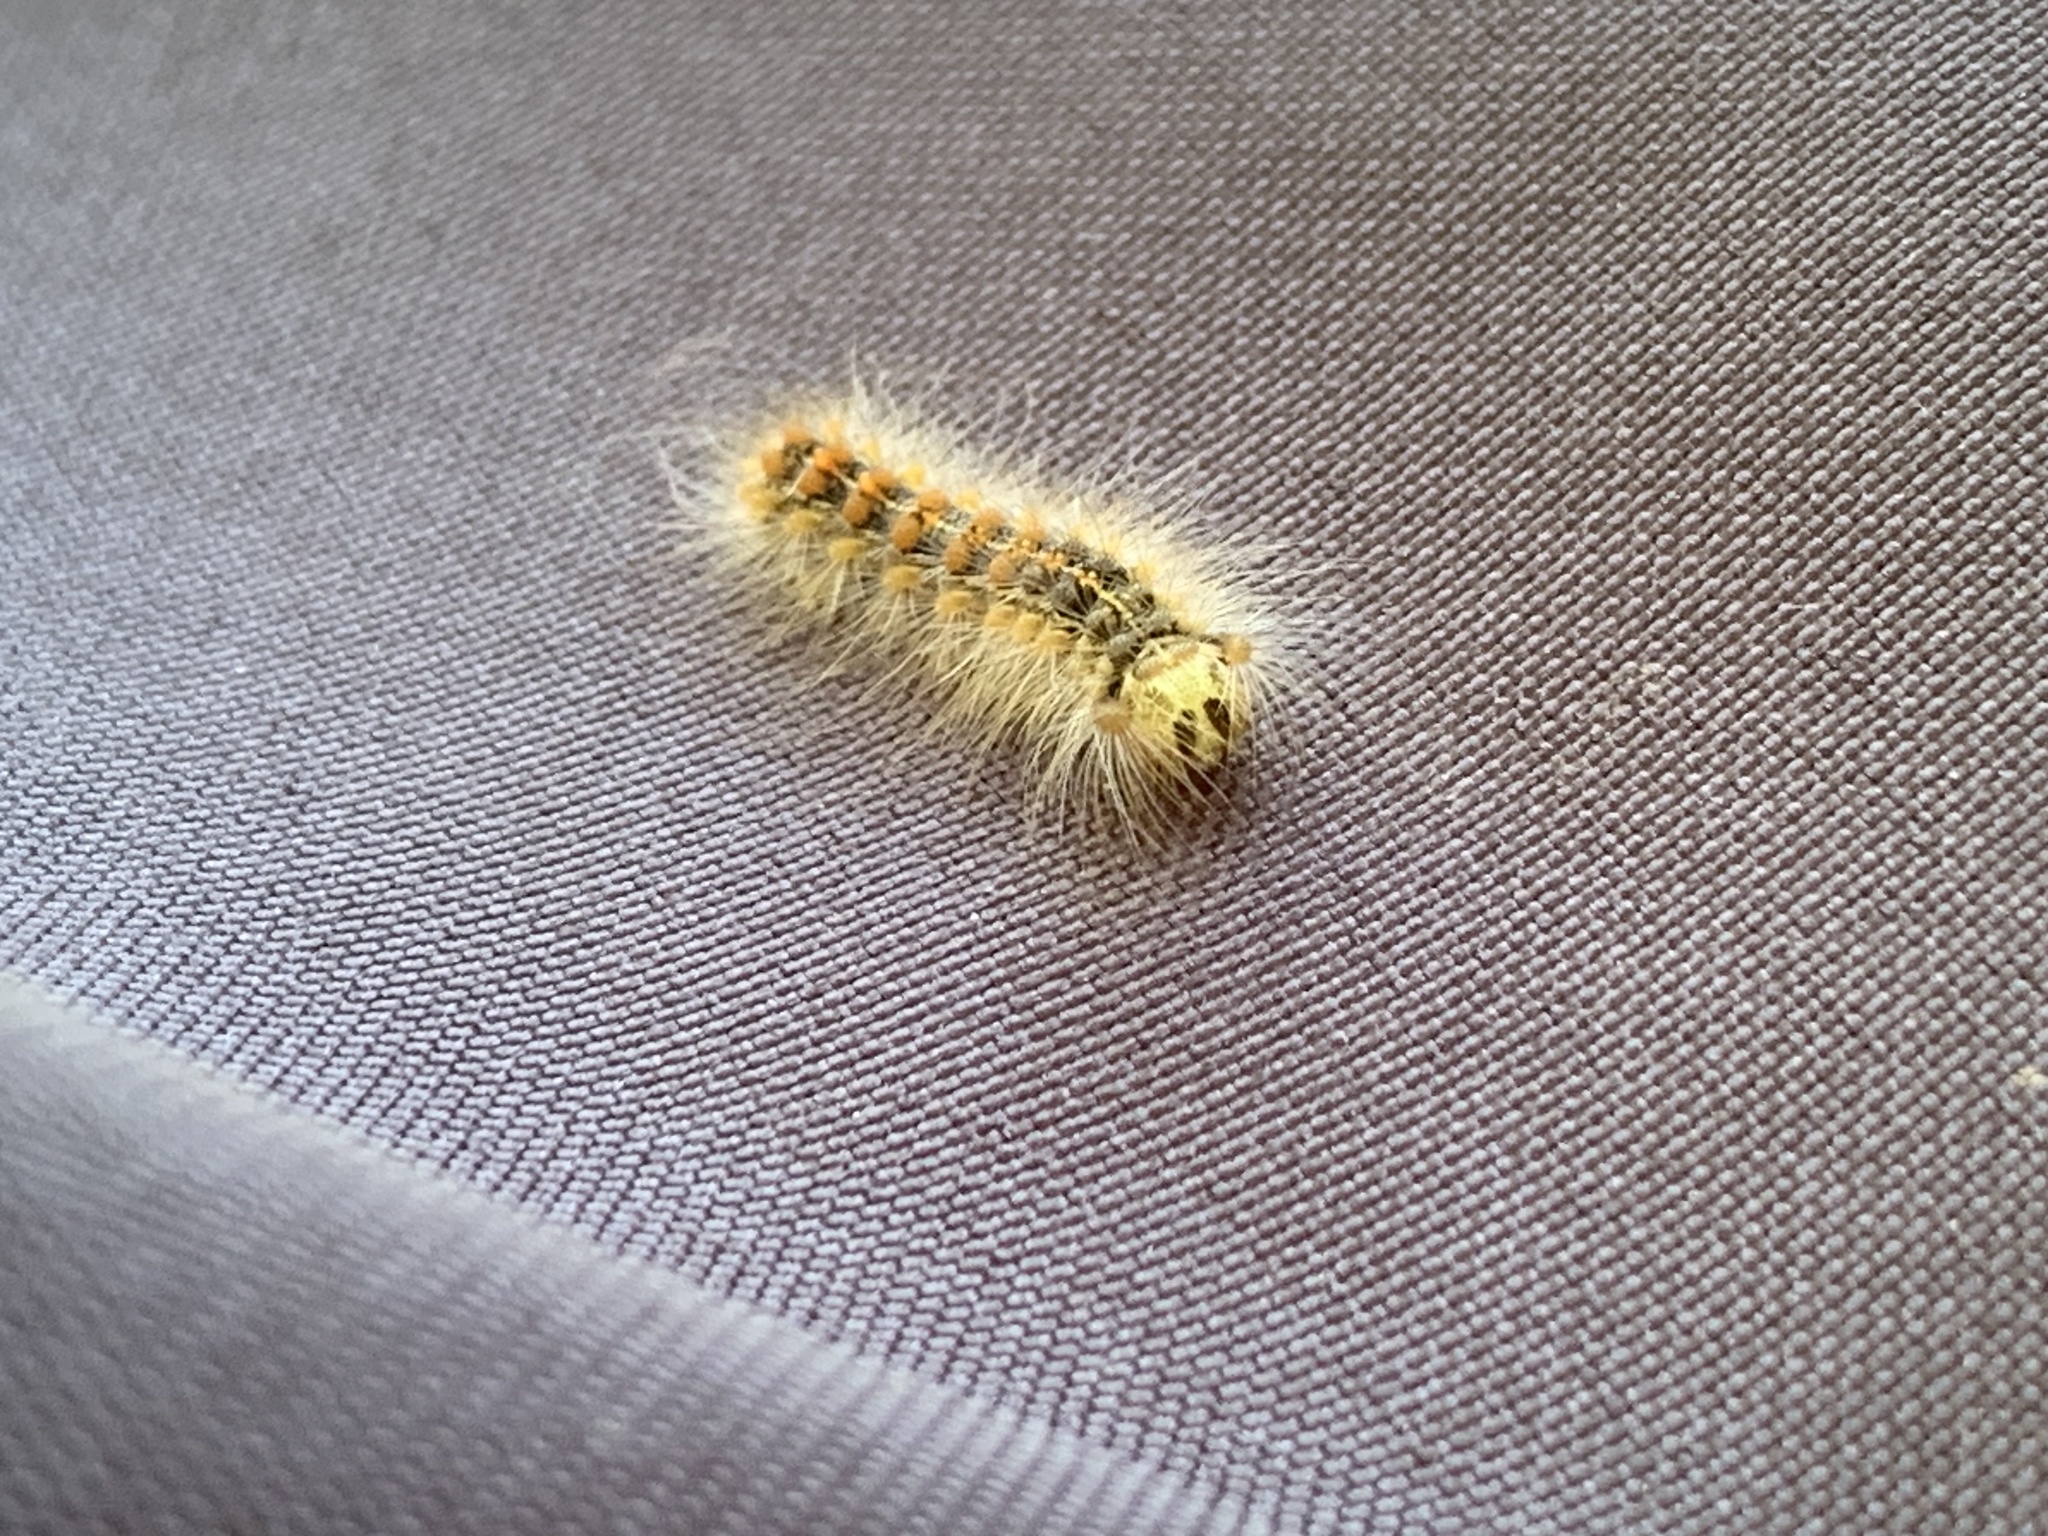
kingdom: Animalia
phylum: Arthropoda
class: Insecta
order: Lepidoptera
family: Erebidae
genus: Lymantria
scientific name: Lymantria dispar
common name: Gypsy moth
